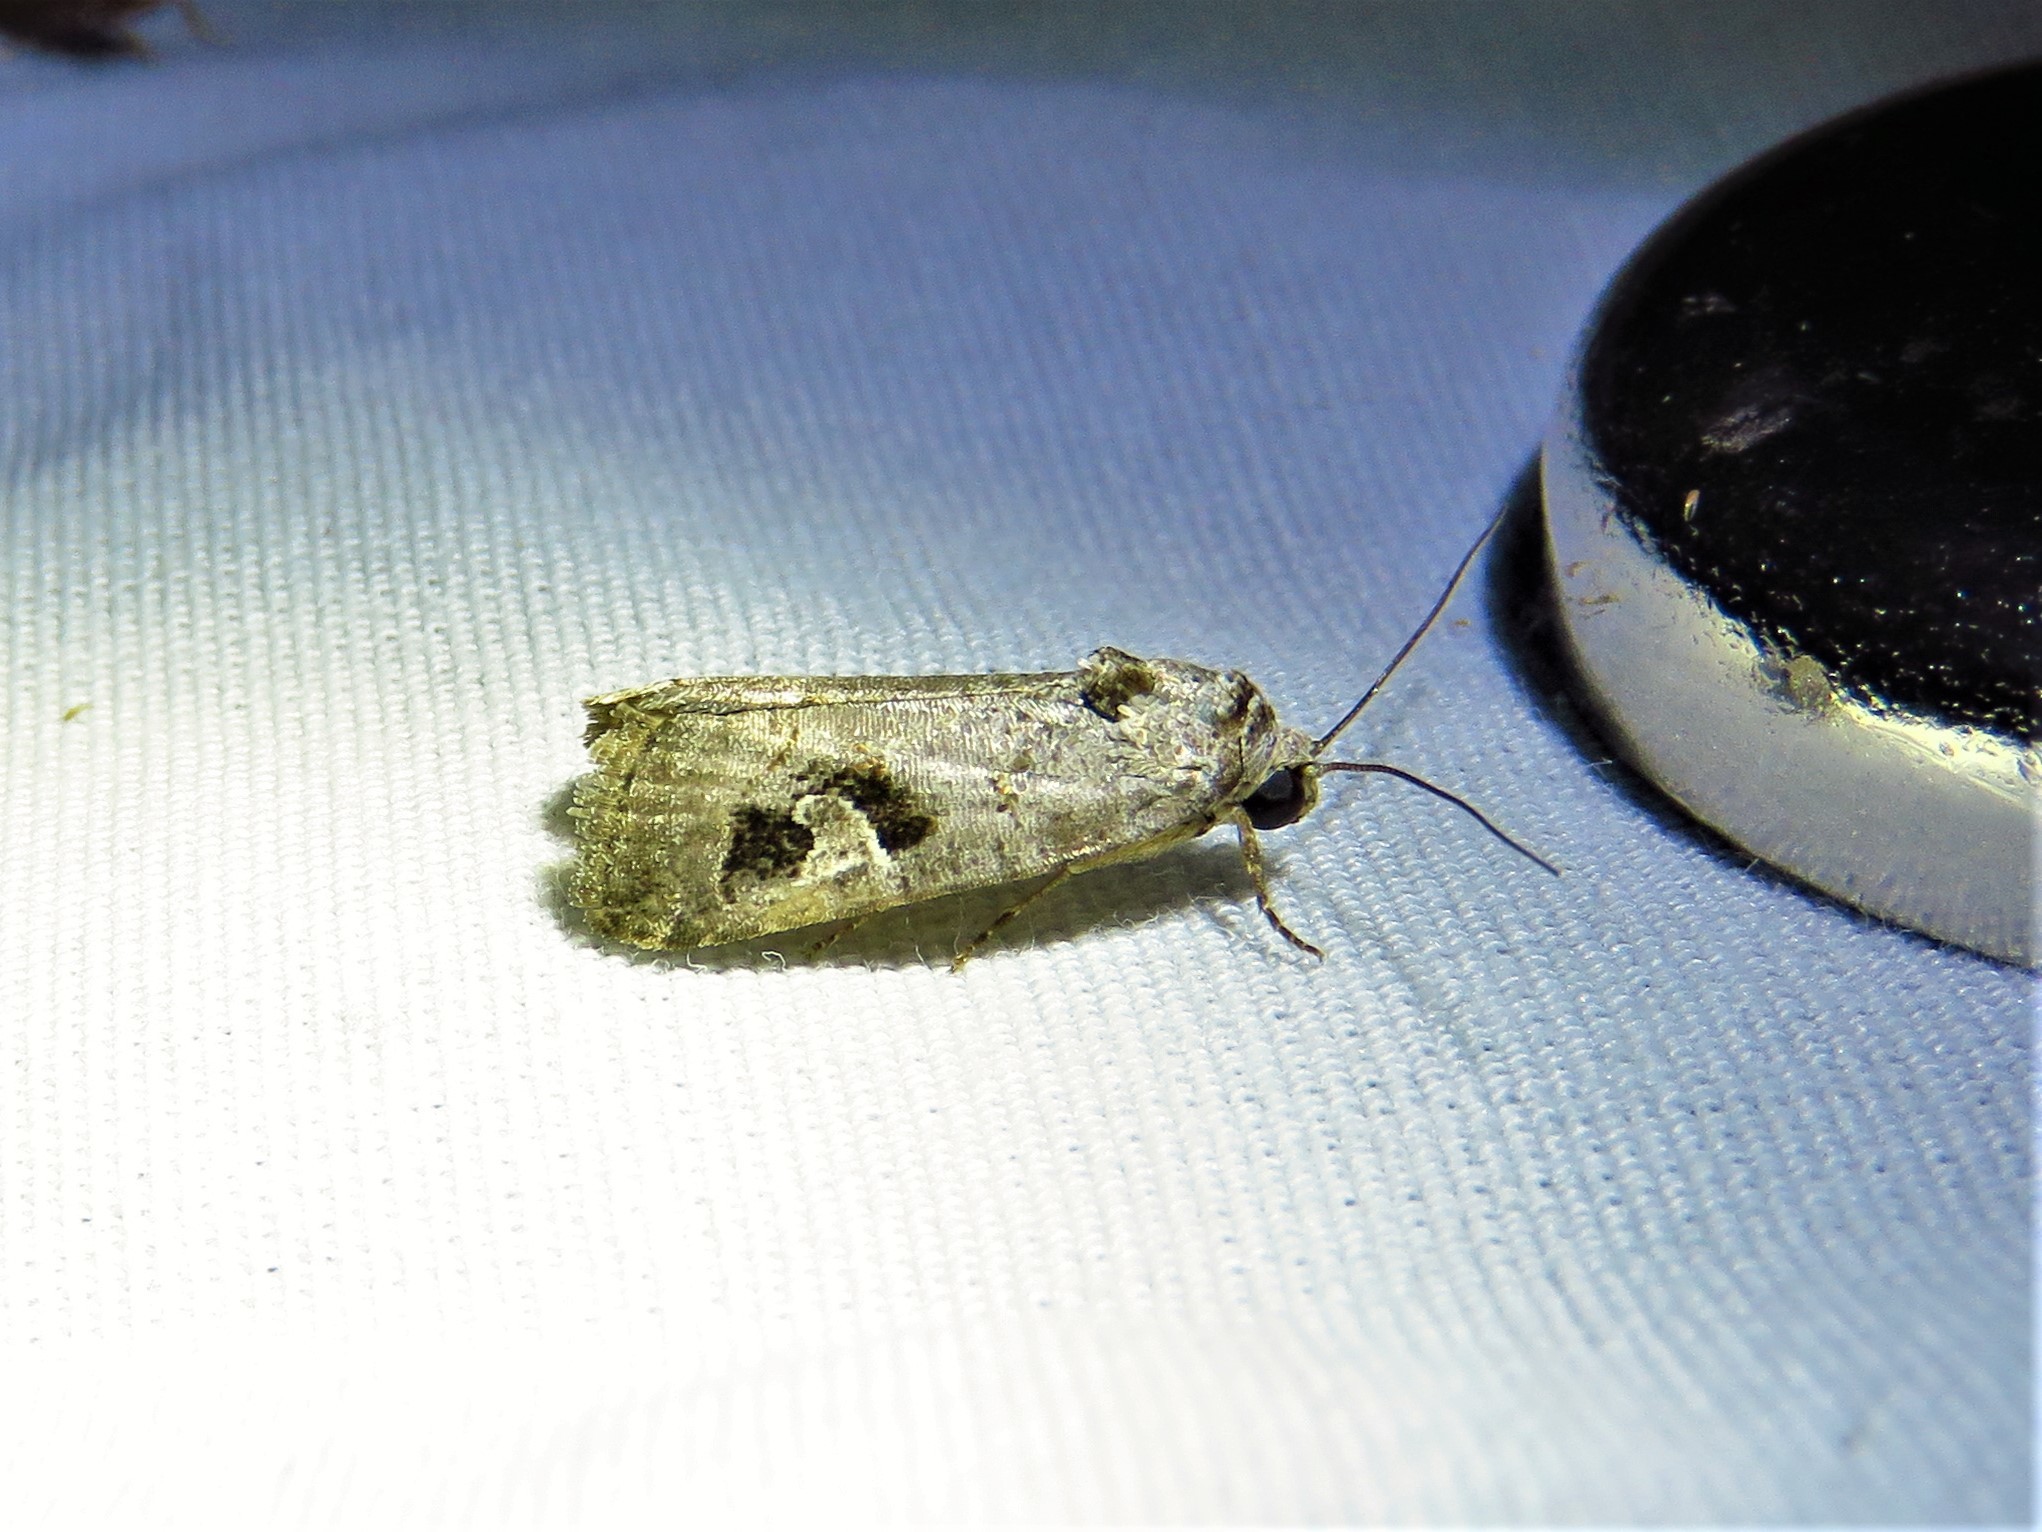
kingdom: Animalia
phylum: Arthropoda
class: Insecta
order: Lepidoptera
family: Noctuidae
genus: Metaponpneumata
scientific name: Metaponpneumata rogenhoferi
